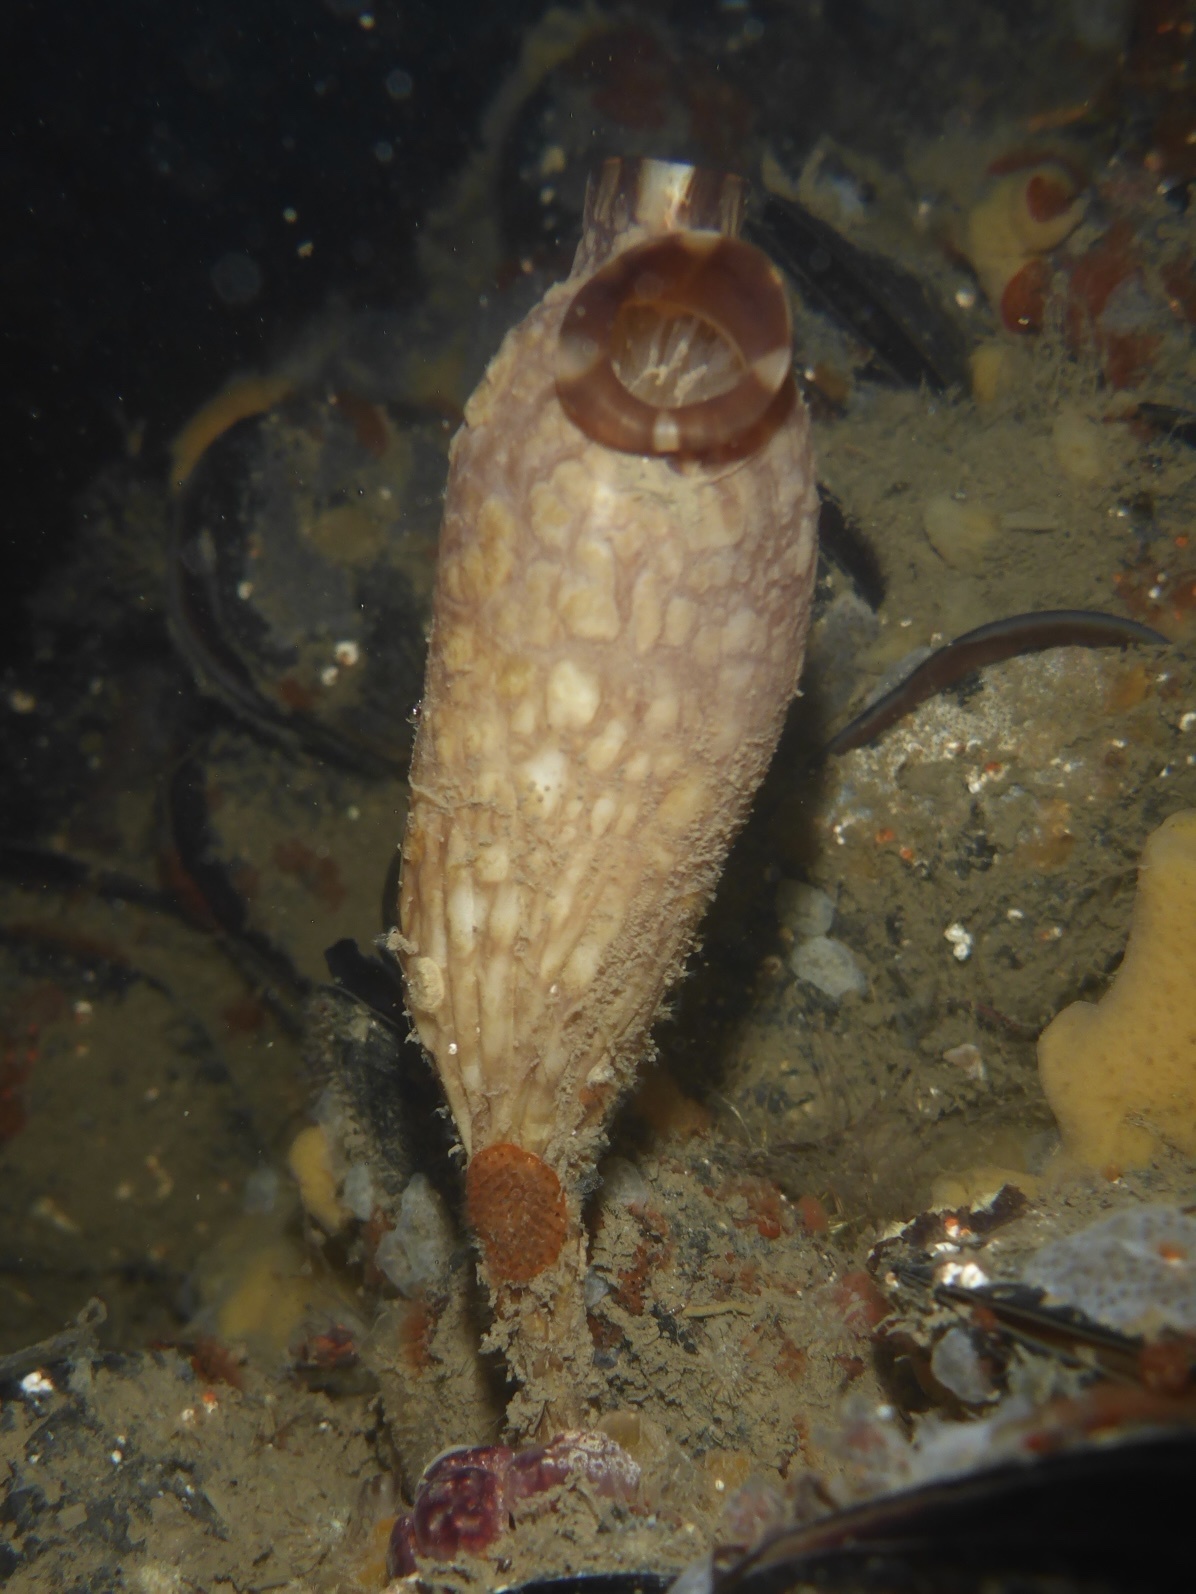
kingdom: Animalia
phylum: Chordata
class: Ascidiacea
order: Stolidobranchia
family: Styelidae
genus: Styela
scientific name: Styela clava
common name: Leathery sea squirt
